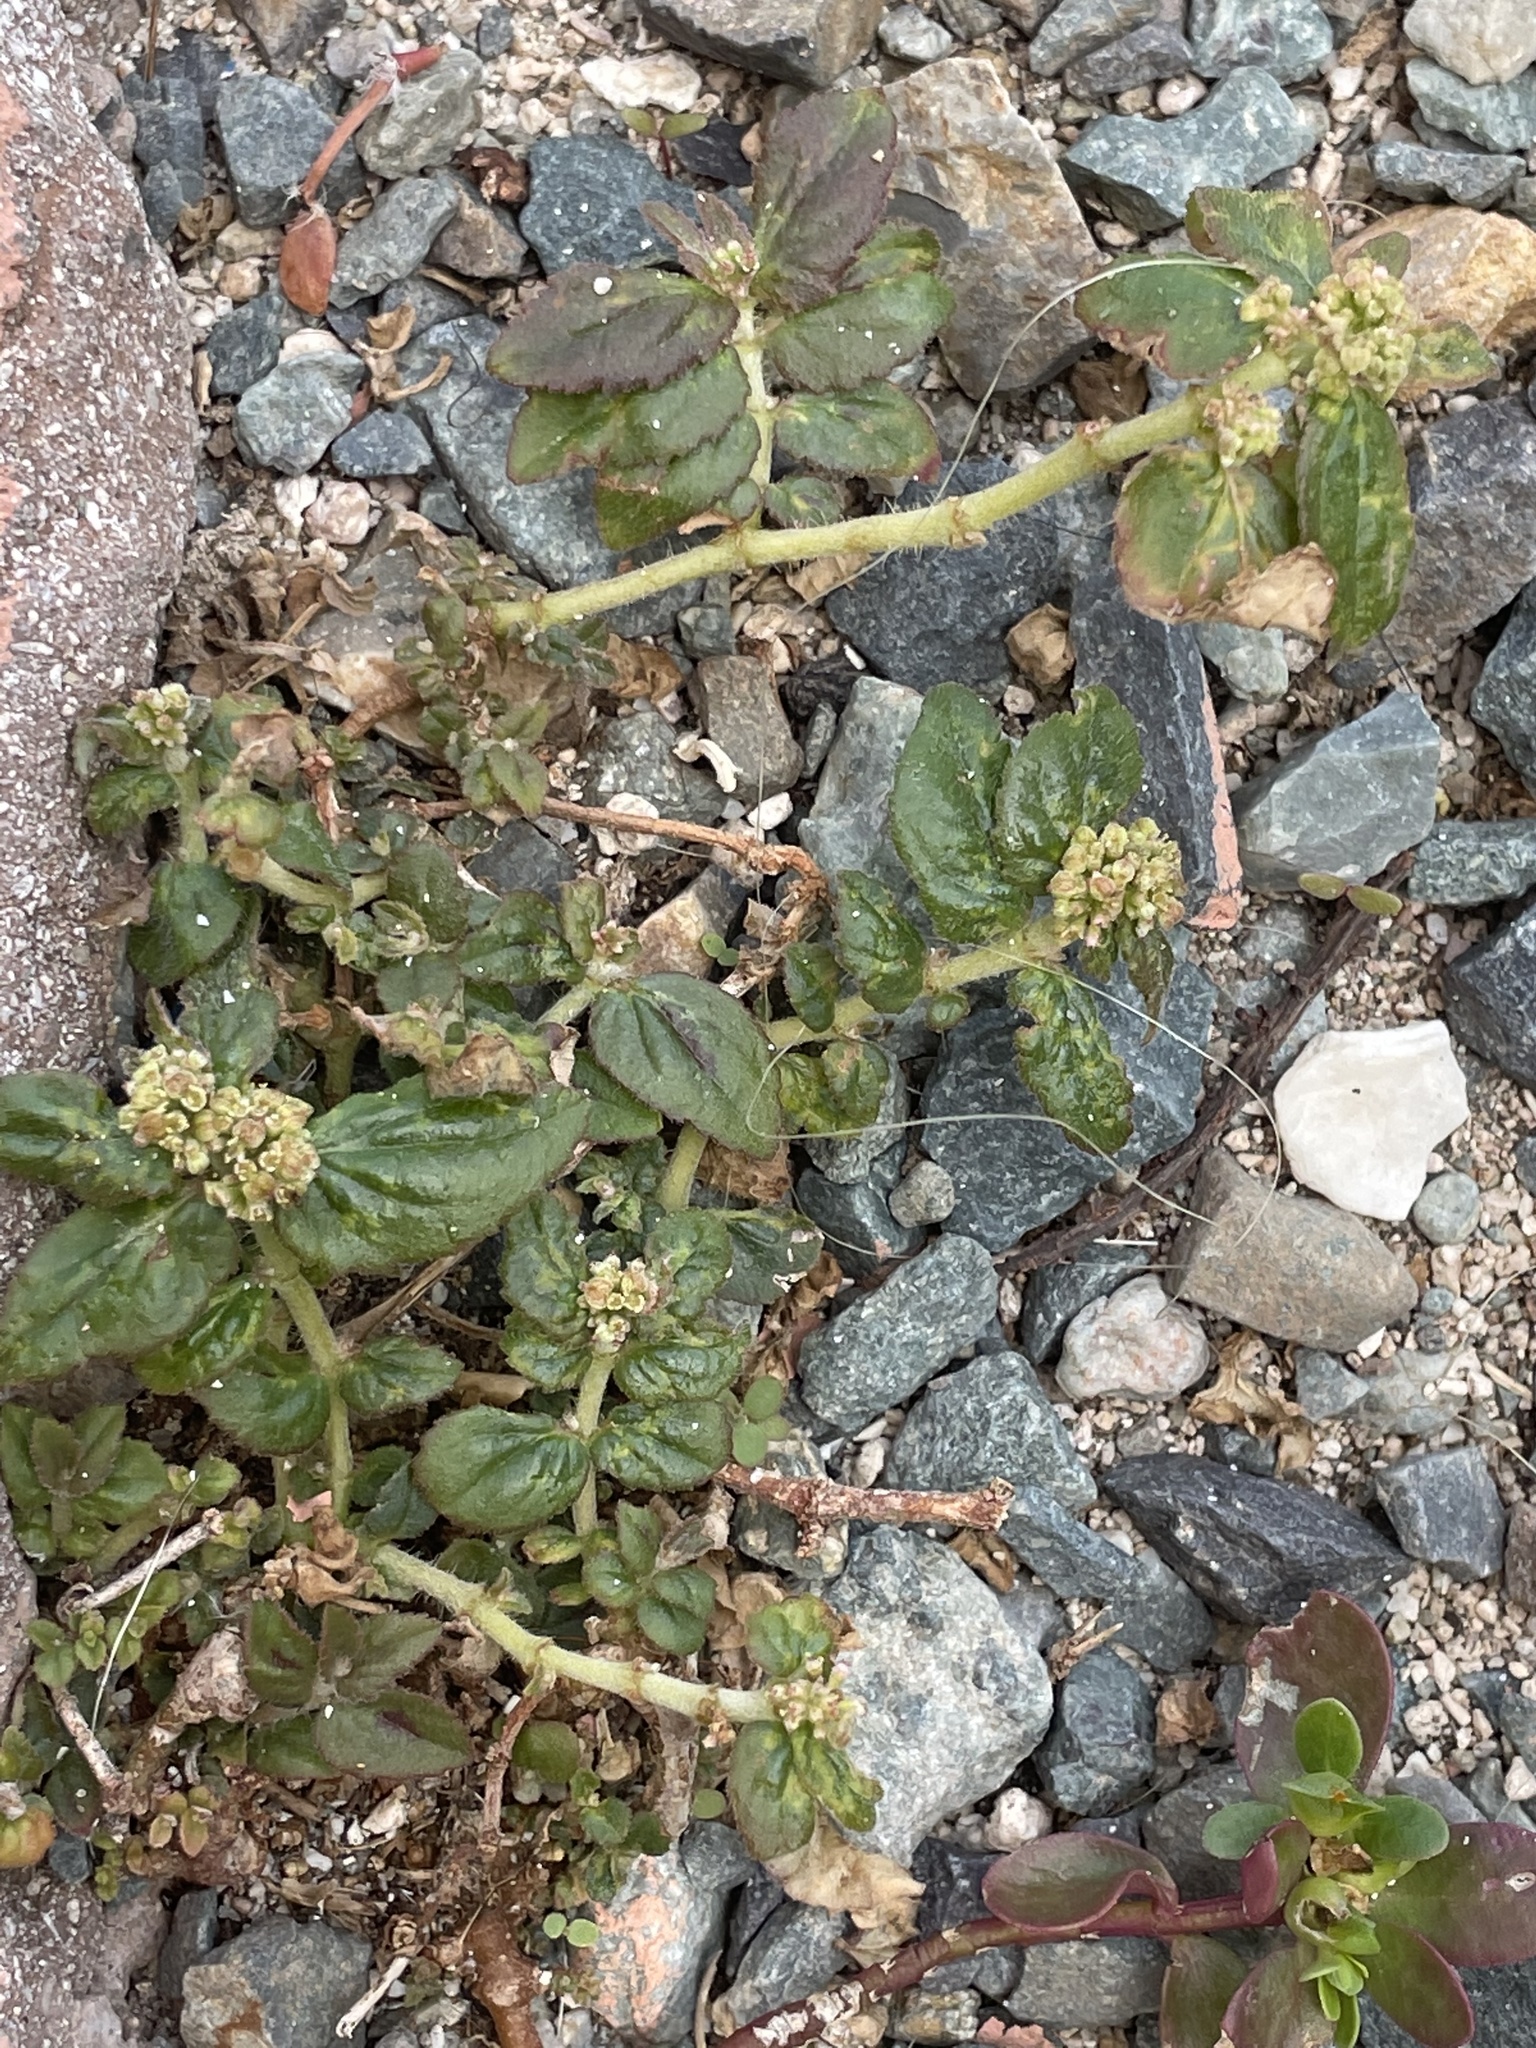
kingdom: Plantae
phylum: Tracheophyta
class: Magnoliopsida
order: Malpighiales
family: Euphorbiaceae
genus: Euphorbia
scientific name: Euphorbia hirta
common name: Pillpod sandmat
